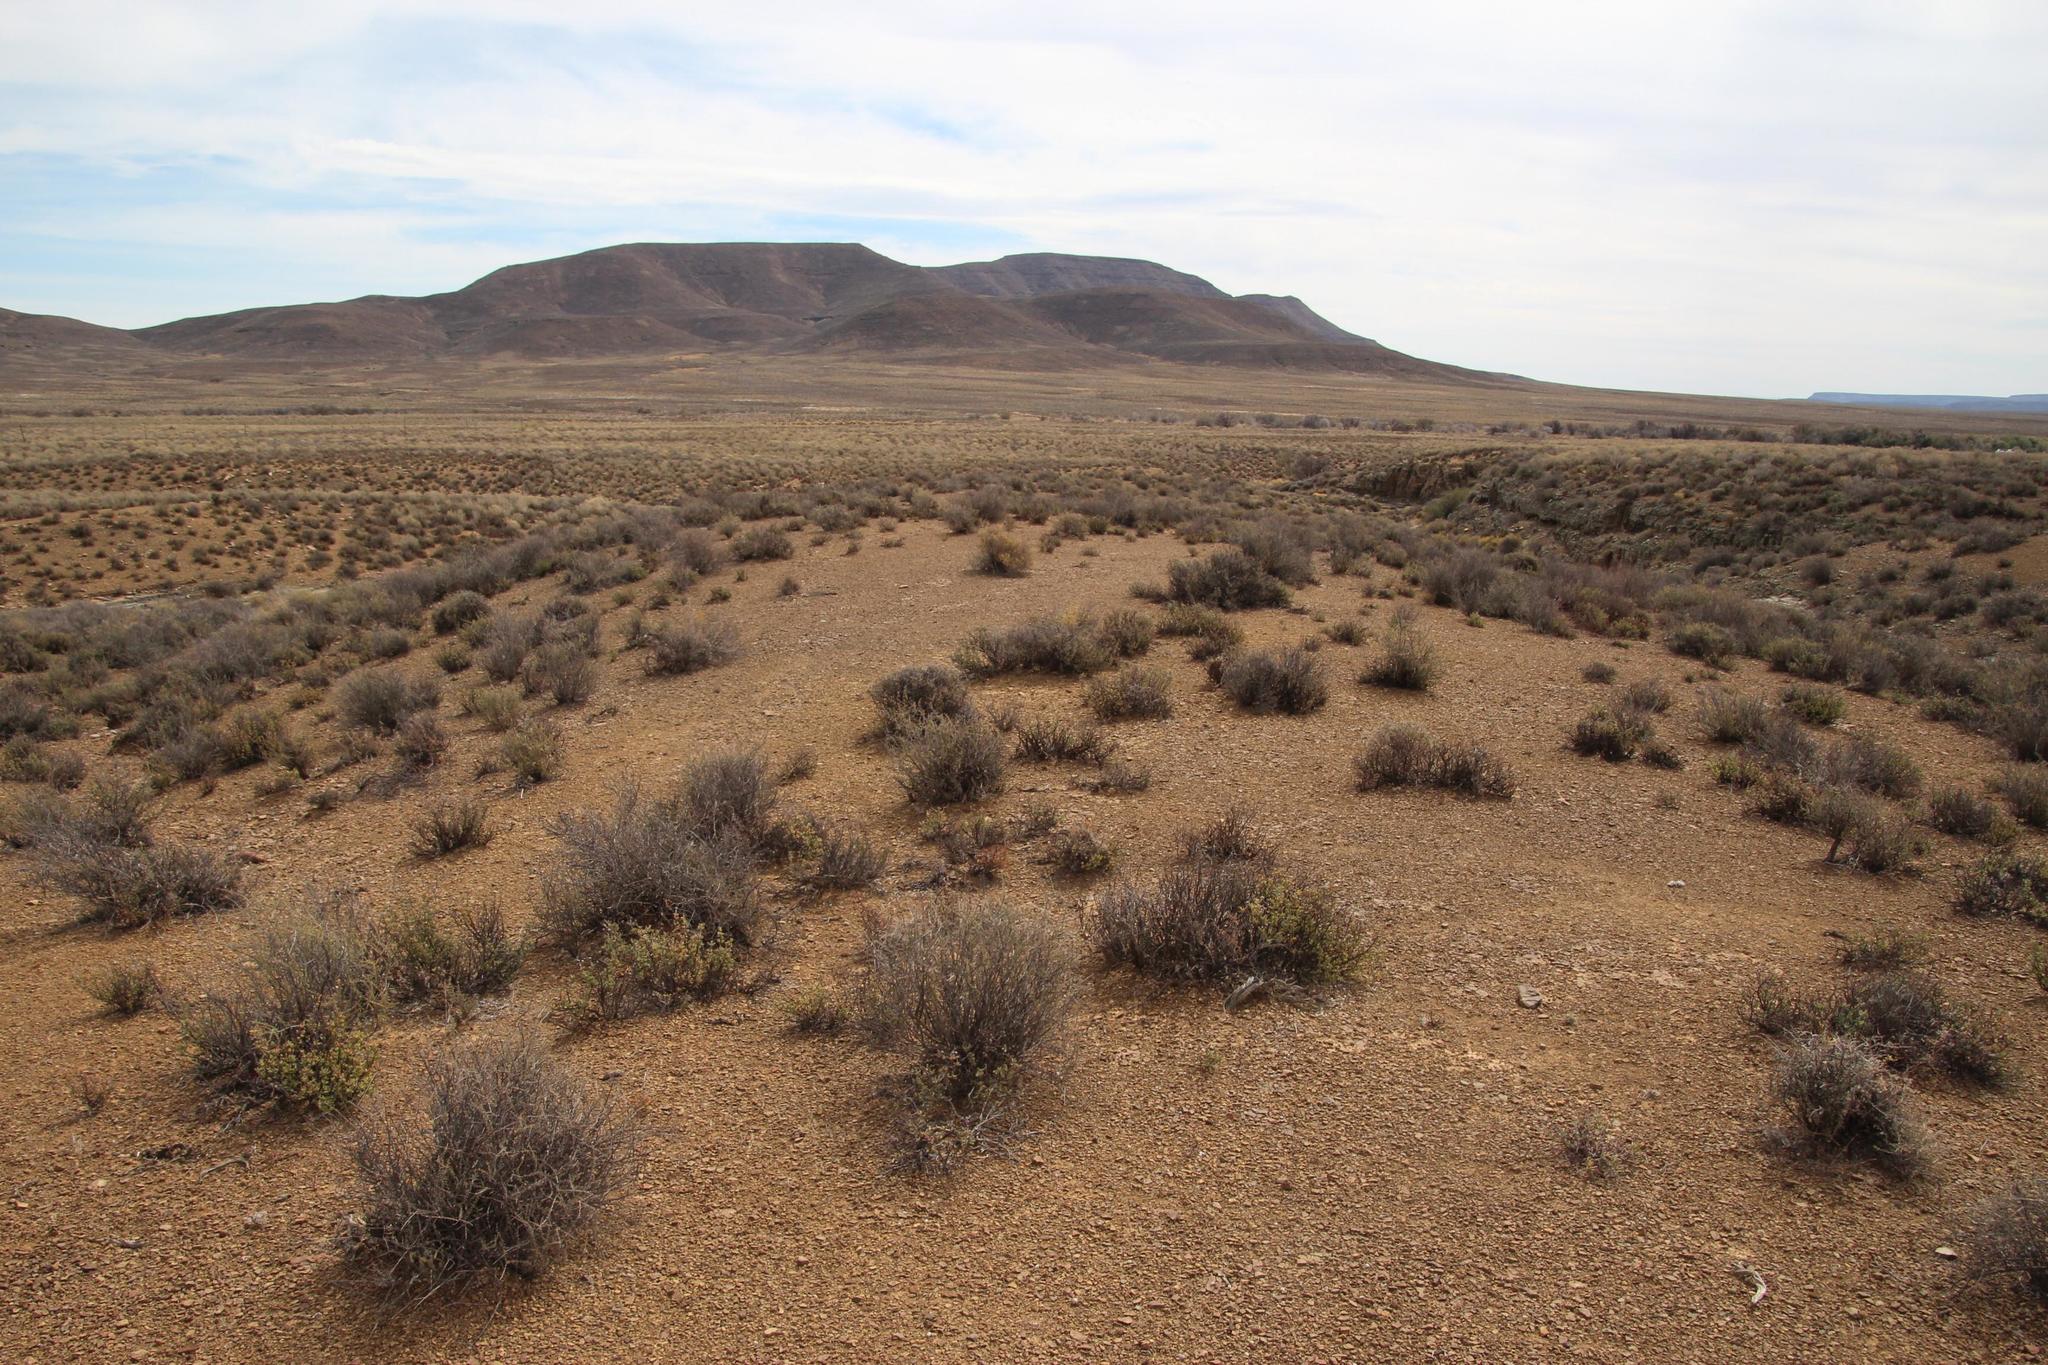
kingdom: Plantae
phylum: Tracheophyta
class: Magnoliopsida
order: Asterales
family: Asteraceae
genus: Eriocephalus
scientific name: Eriocephalus ericoides
